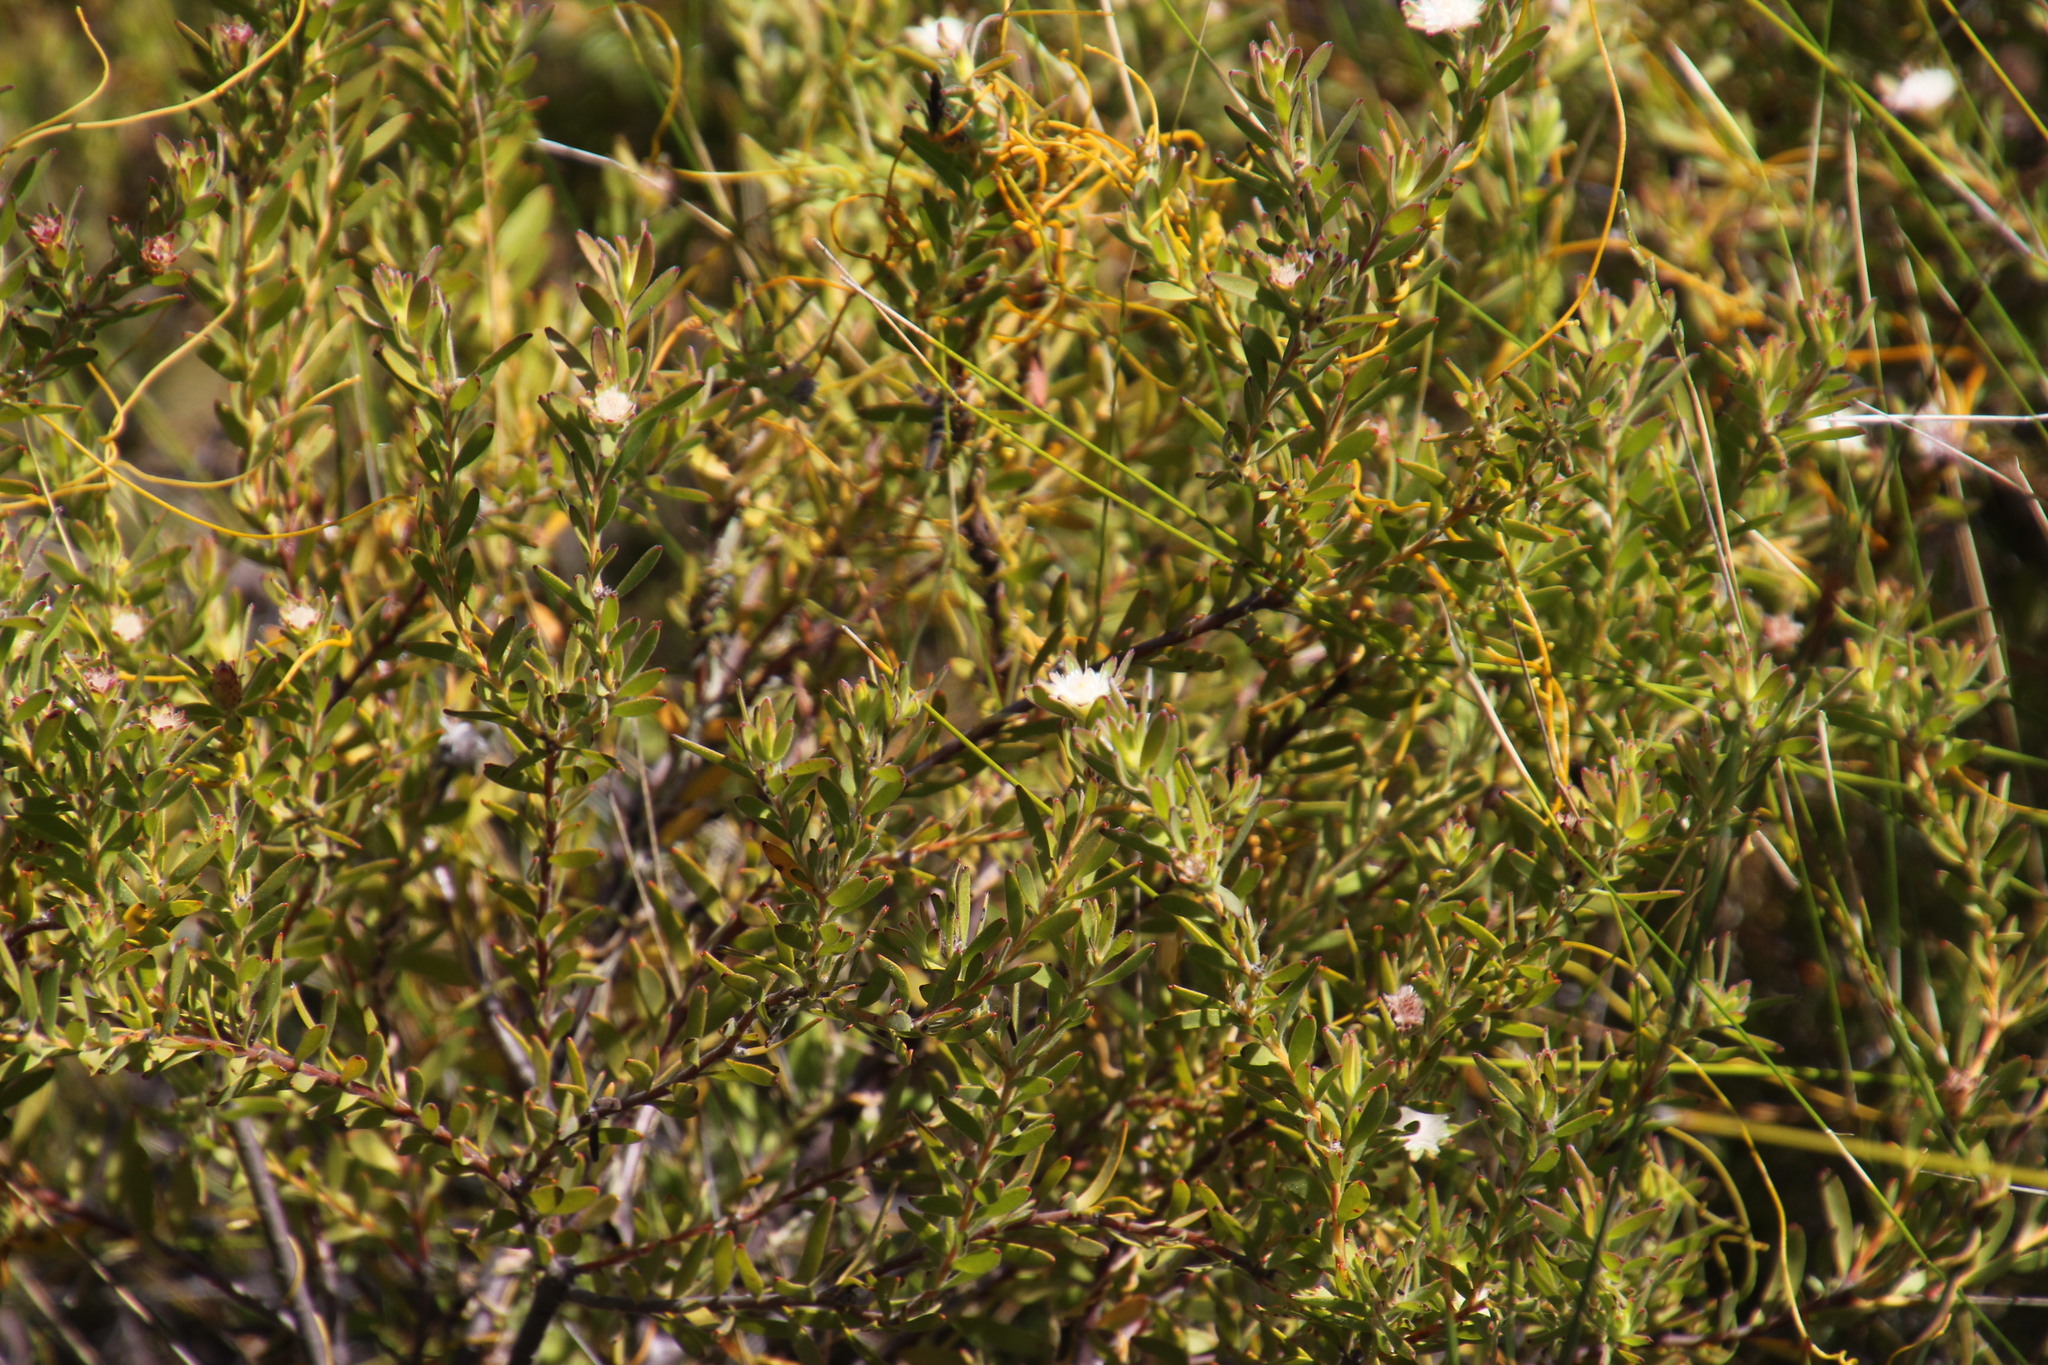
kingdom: Plantae
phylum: Tracheophyta
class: Magnoliopsida
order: Proteales
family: Proteaceae
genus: Diastella
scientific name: Diastella myrtifolia
